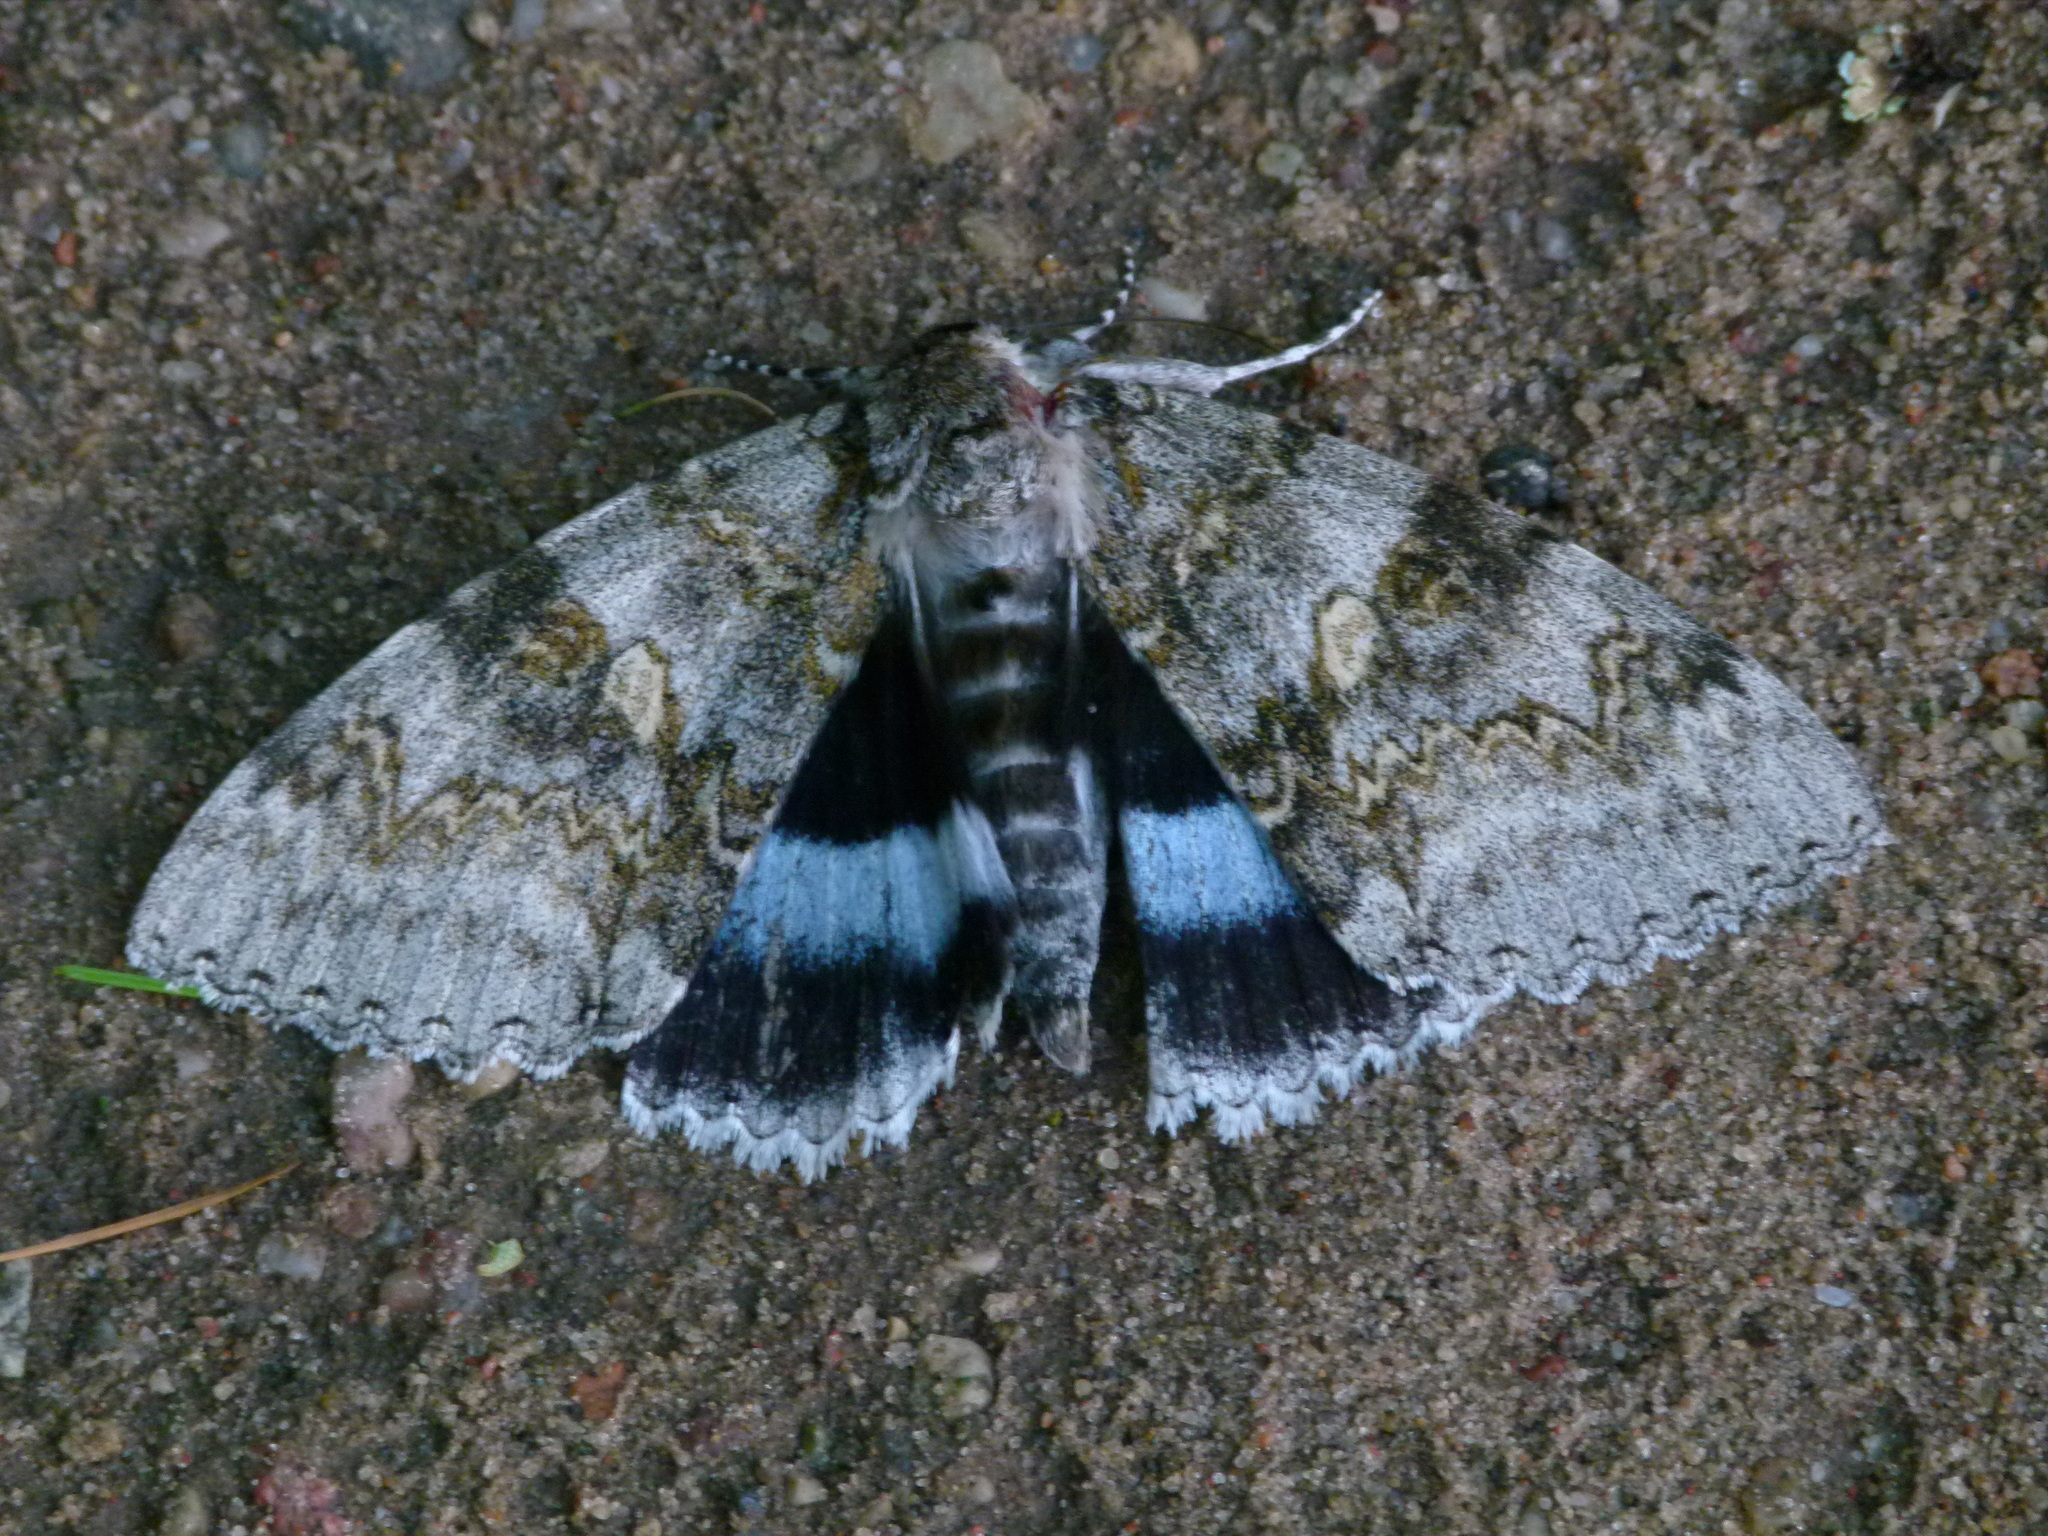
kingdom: Animalia
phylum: Arthropoda
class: Insecta
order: Lepidoptera
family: Erebidae
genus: Catocala
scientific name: Catocala fraxini
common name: Clifden nonpareil
